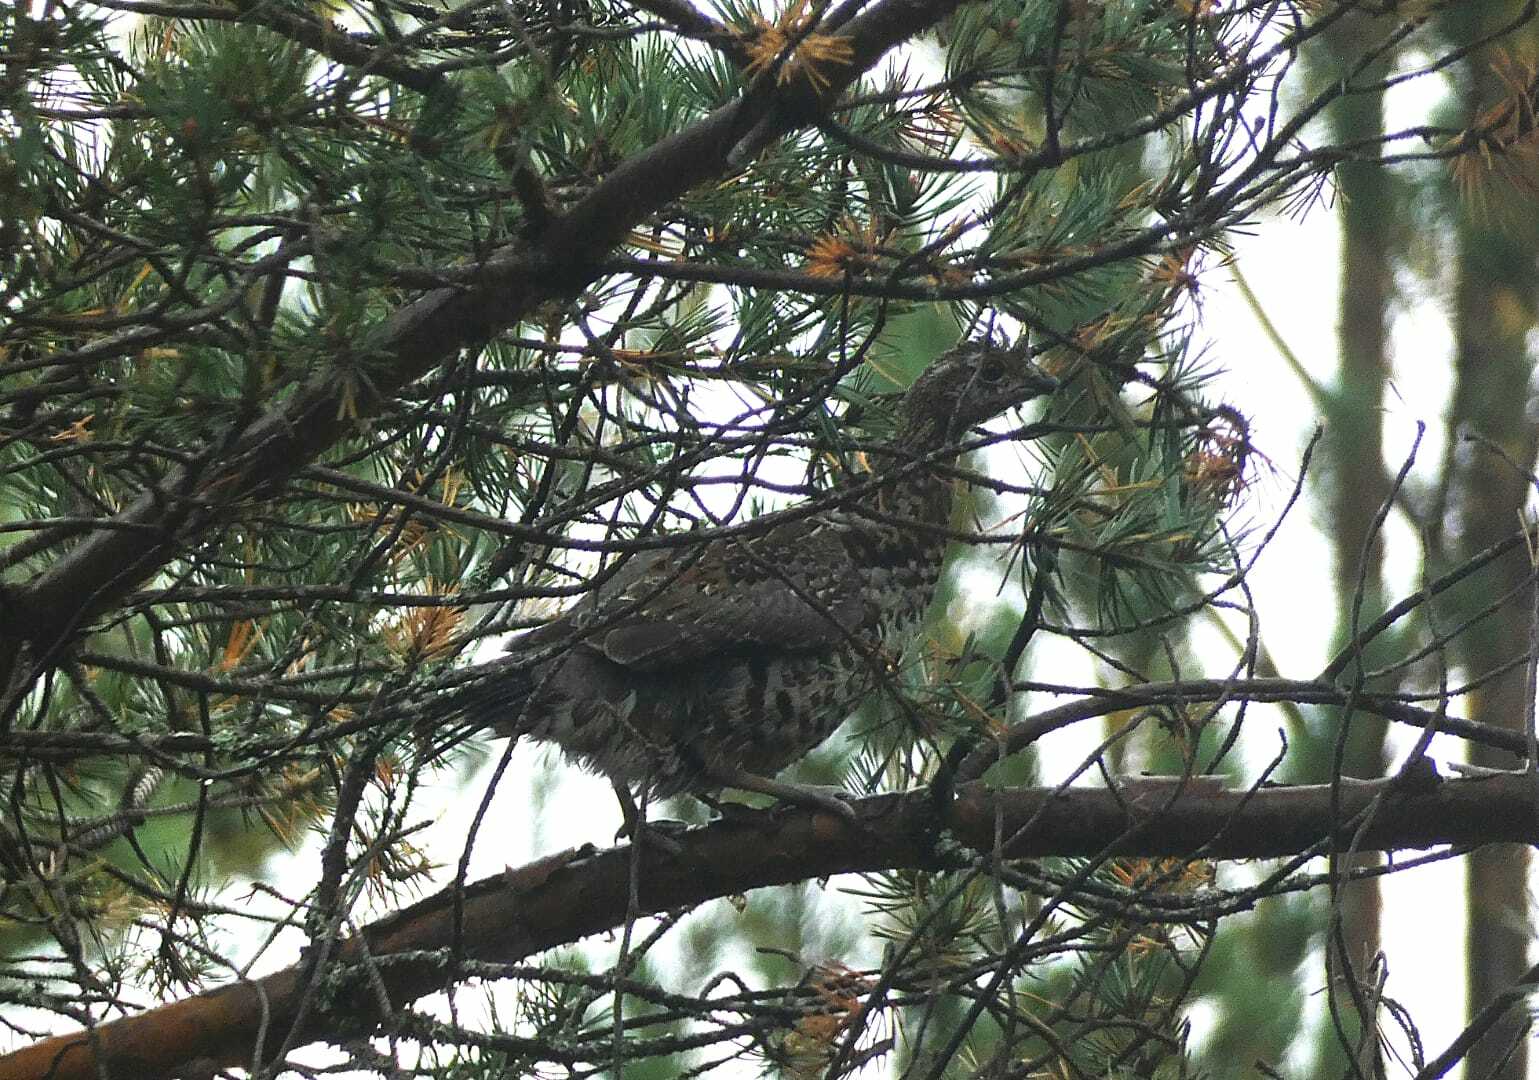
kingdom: Animalia
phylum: Chordata
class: Aves
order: Galliformes
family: Phasianidae
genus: Tetrastes
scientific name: Tetrastes bonasia
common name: Hazel grouse
